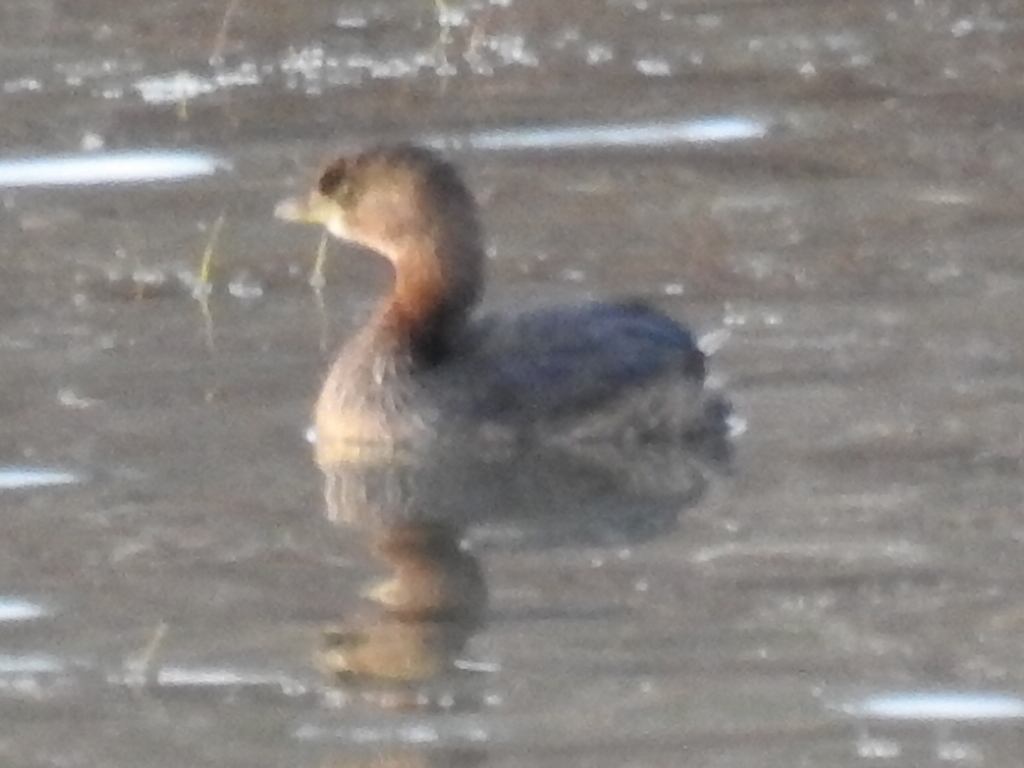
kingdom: Animalia
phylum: Chordata
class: Aves
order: Podicipediformes
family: Podicipedidae
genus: Podilymbus
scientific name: Podilymbus podiceps
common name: Pied-billed grebe
